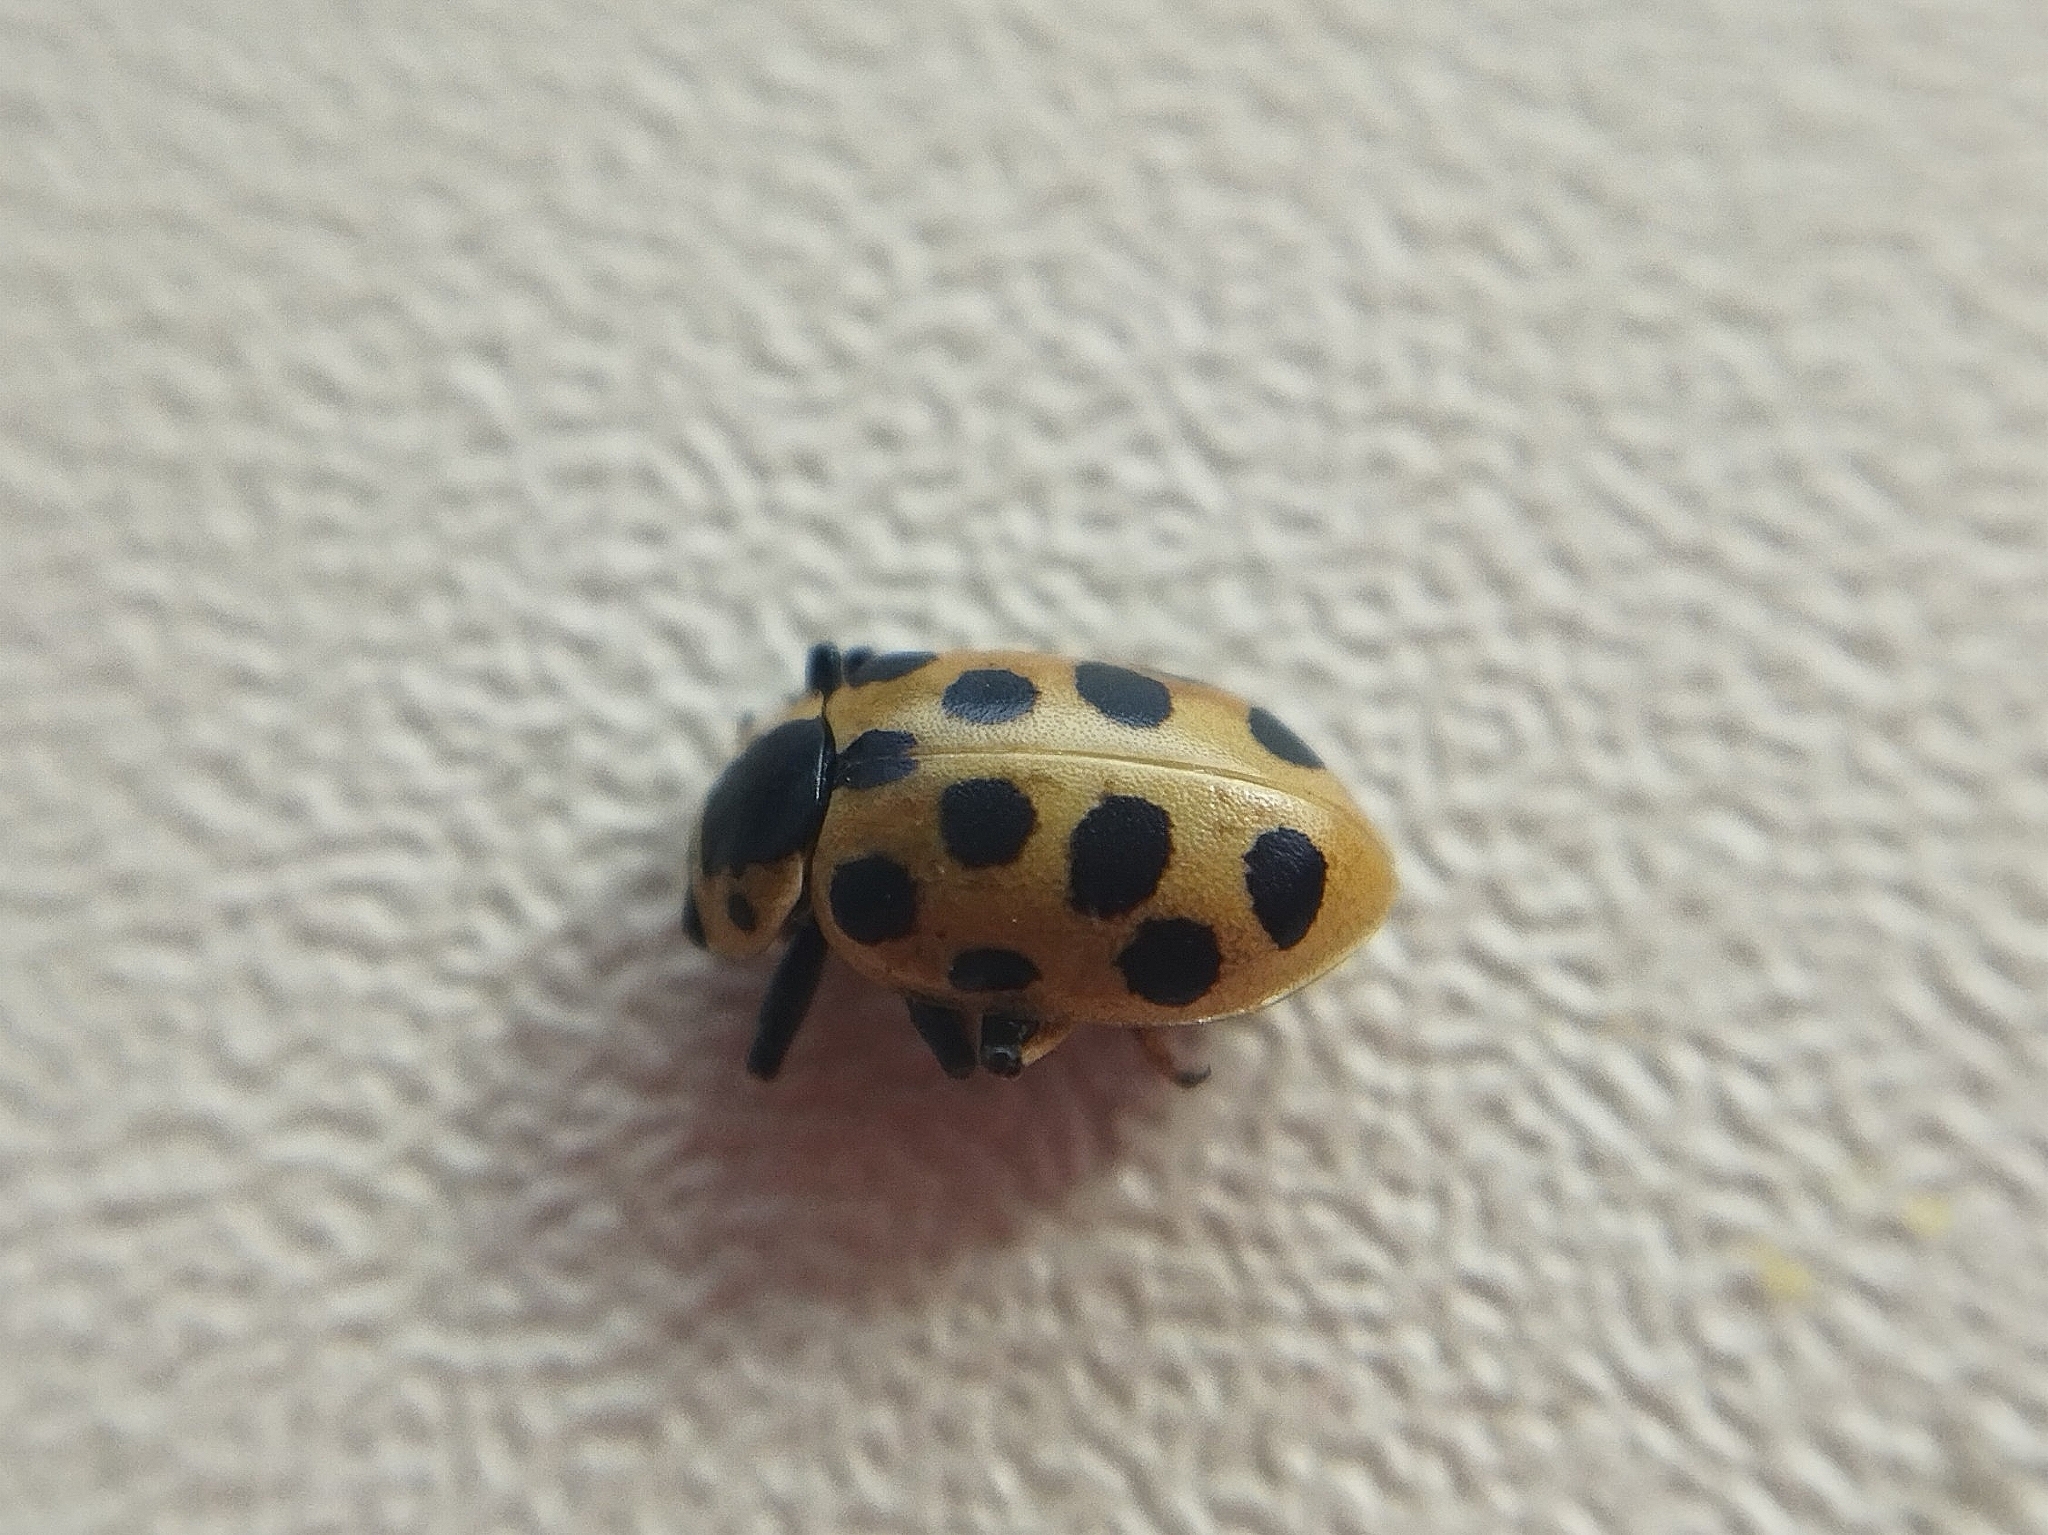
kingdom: Animalia
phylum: Arthropoda
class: Insecta
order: Coleoptera
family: Coccinellidae
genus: Hippodamia
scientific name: Hippodamia tredecimpunctata
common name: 13-spot ladybird
